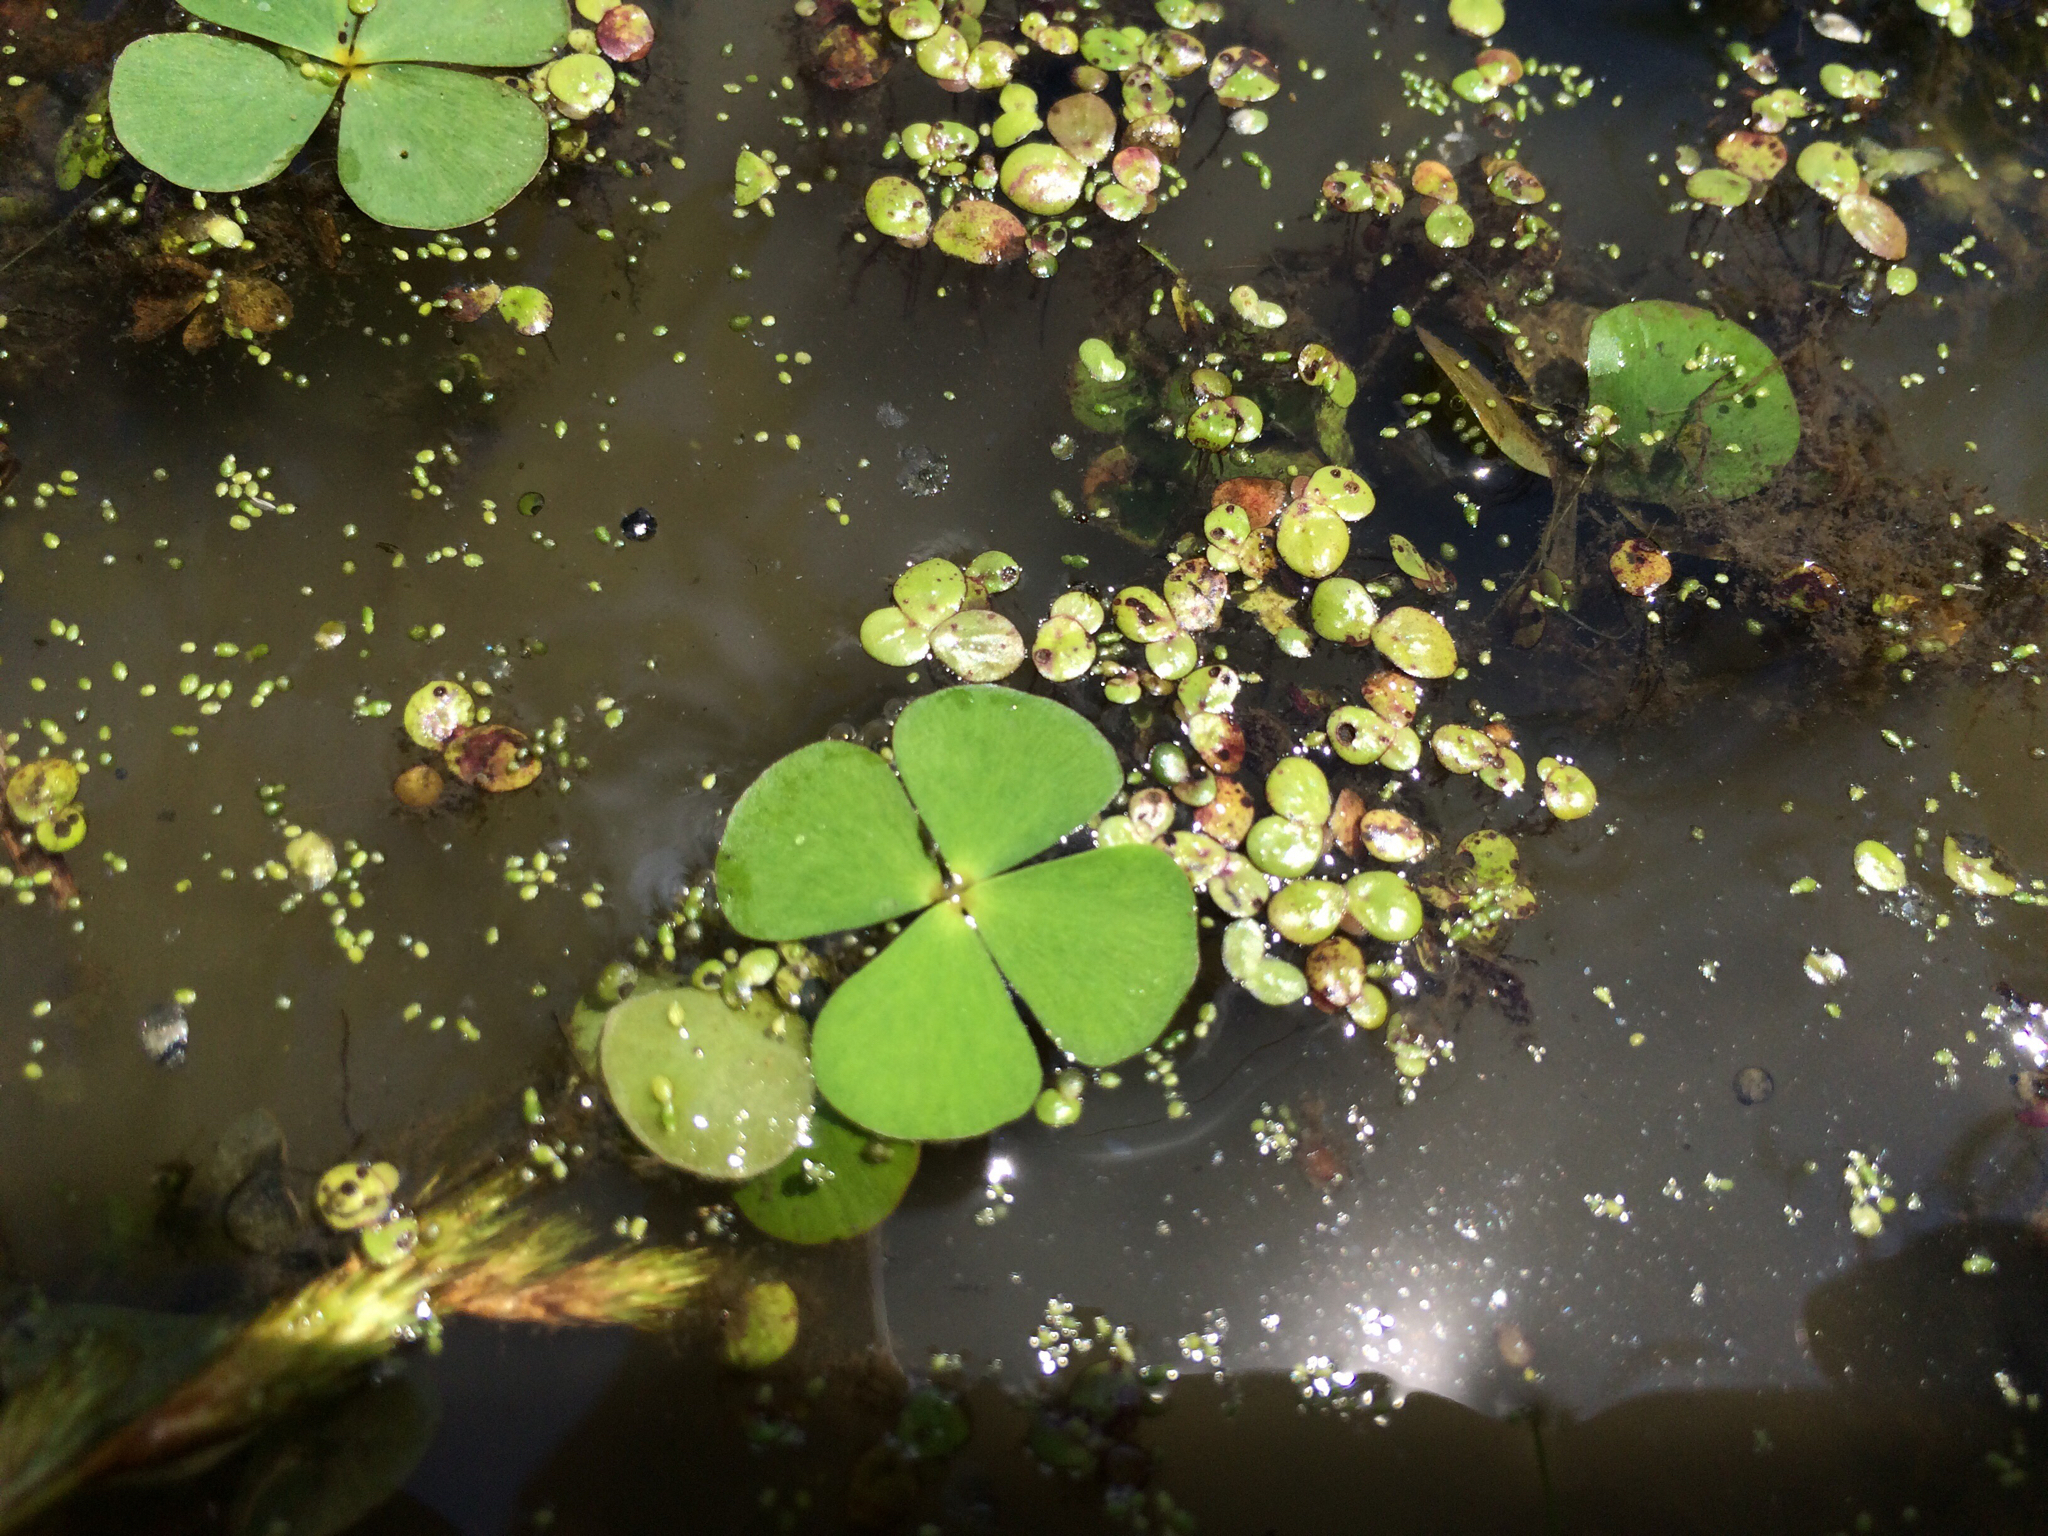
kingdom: Plantae
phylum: Tracheophyta
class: Polypodiopsida
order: Salviniales
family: Marsileaceae
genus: Marsilea
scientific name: Marsilea
